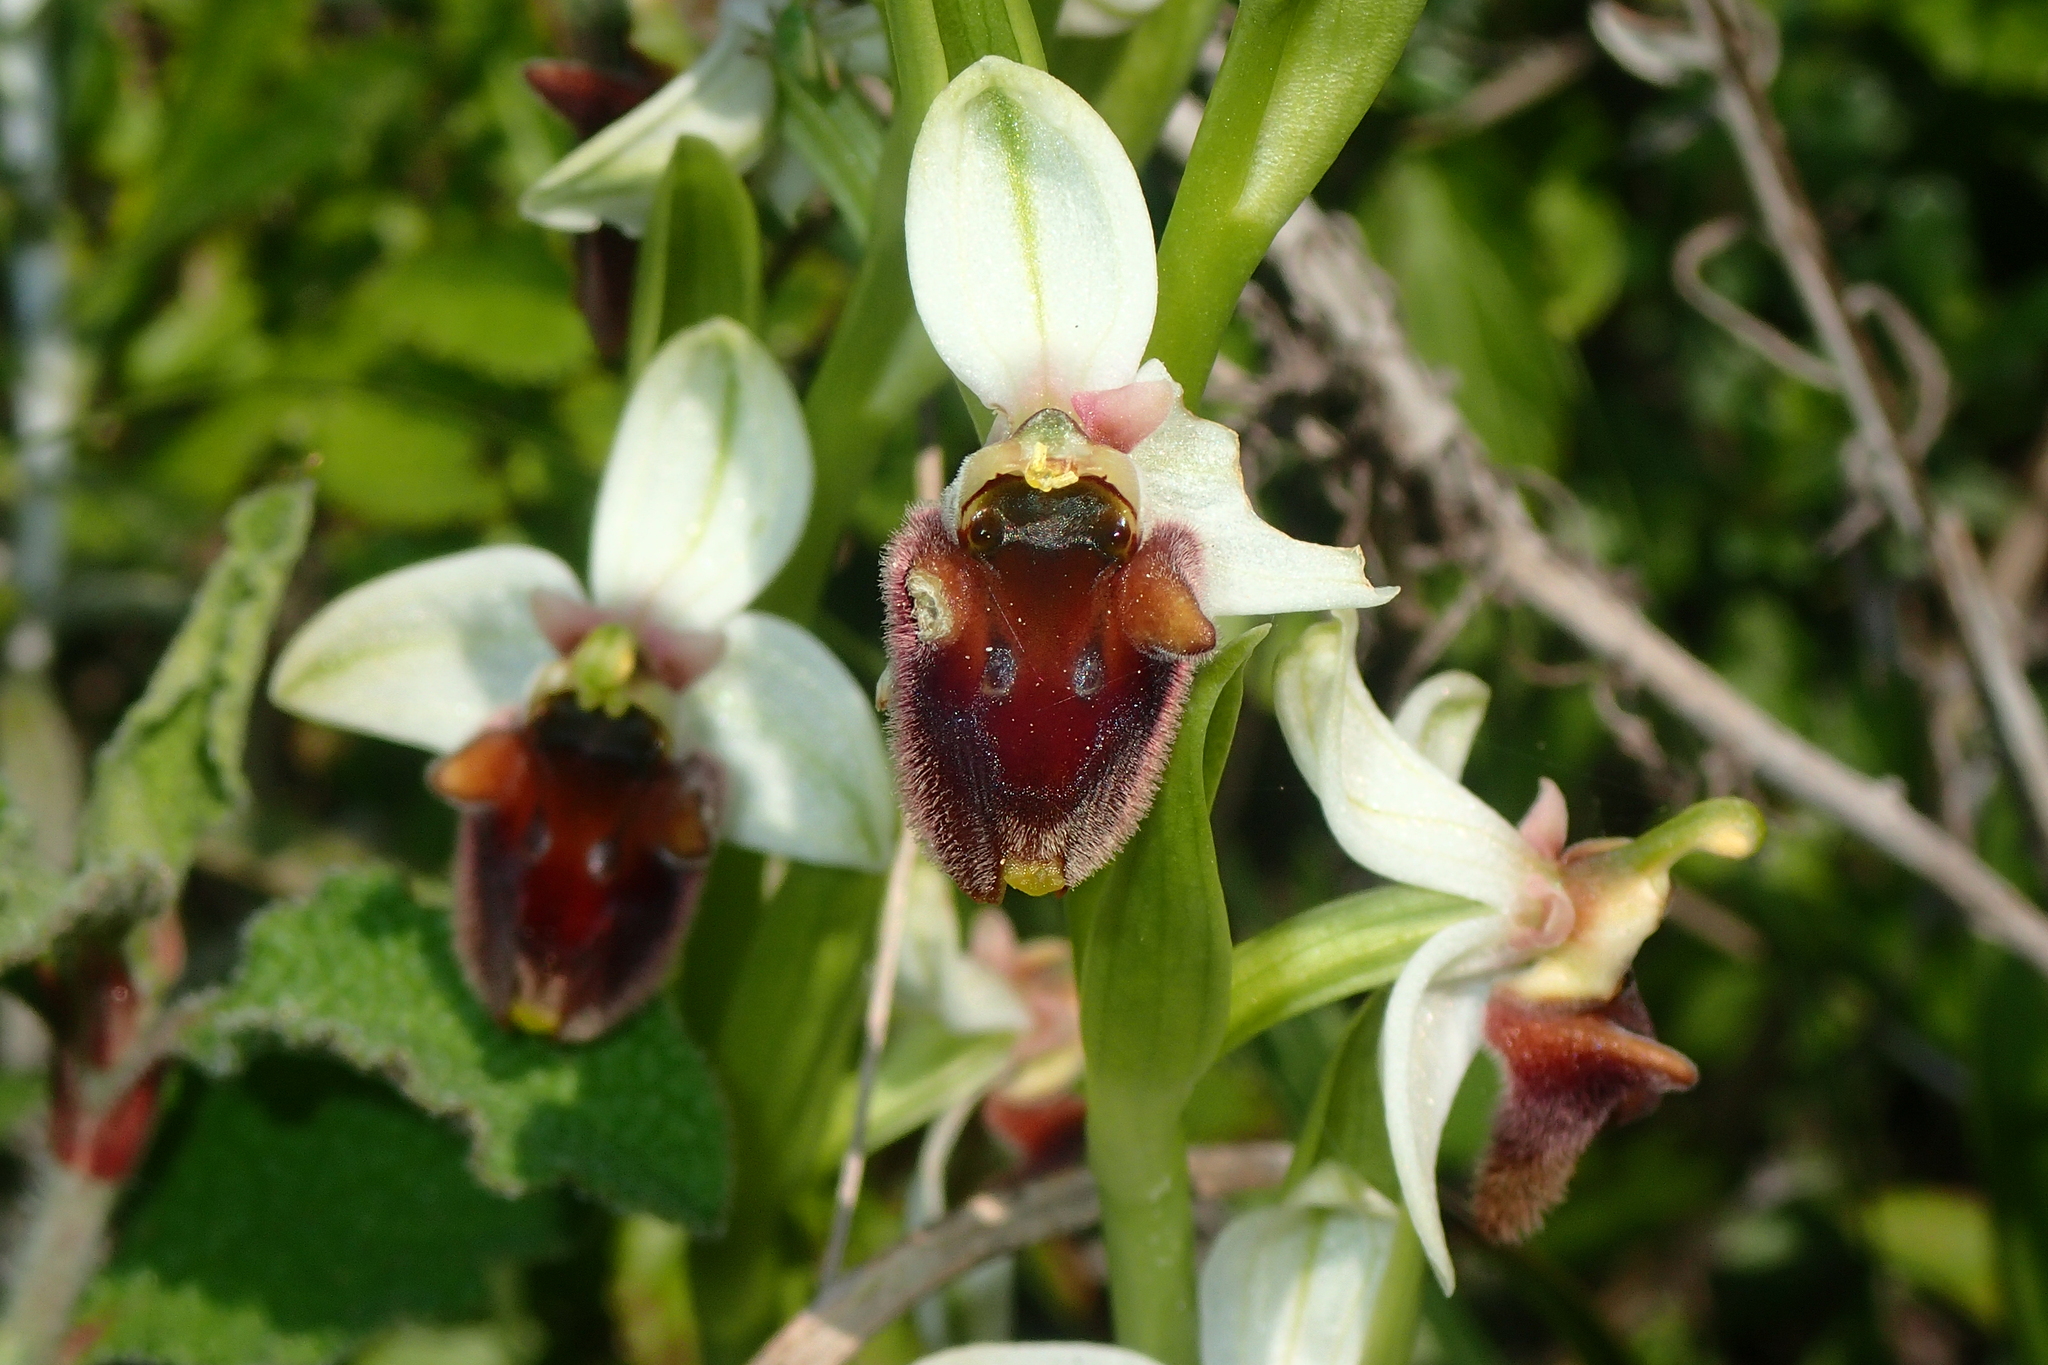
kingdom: Plantae
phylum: Tracheophyta
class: Liliopsida
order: Asparagales
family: Orchidaceae
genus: Ophrys
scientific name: Ophrys bornmuelleri
